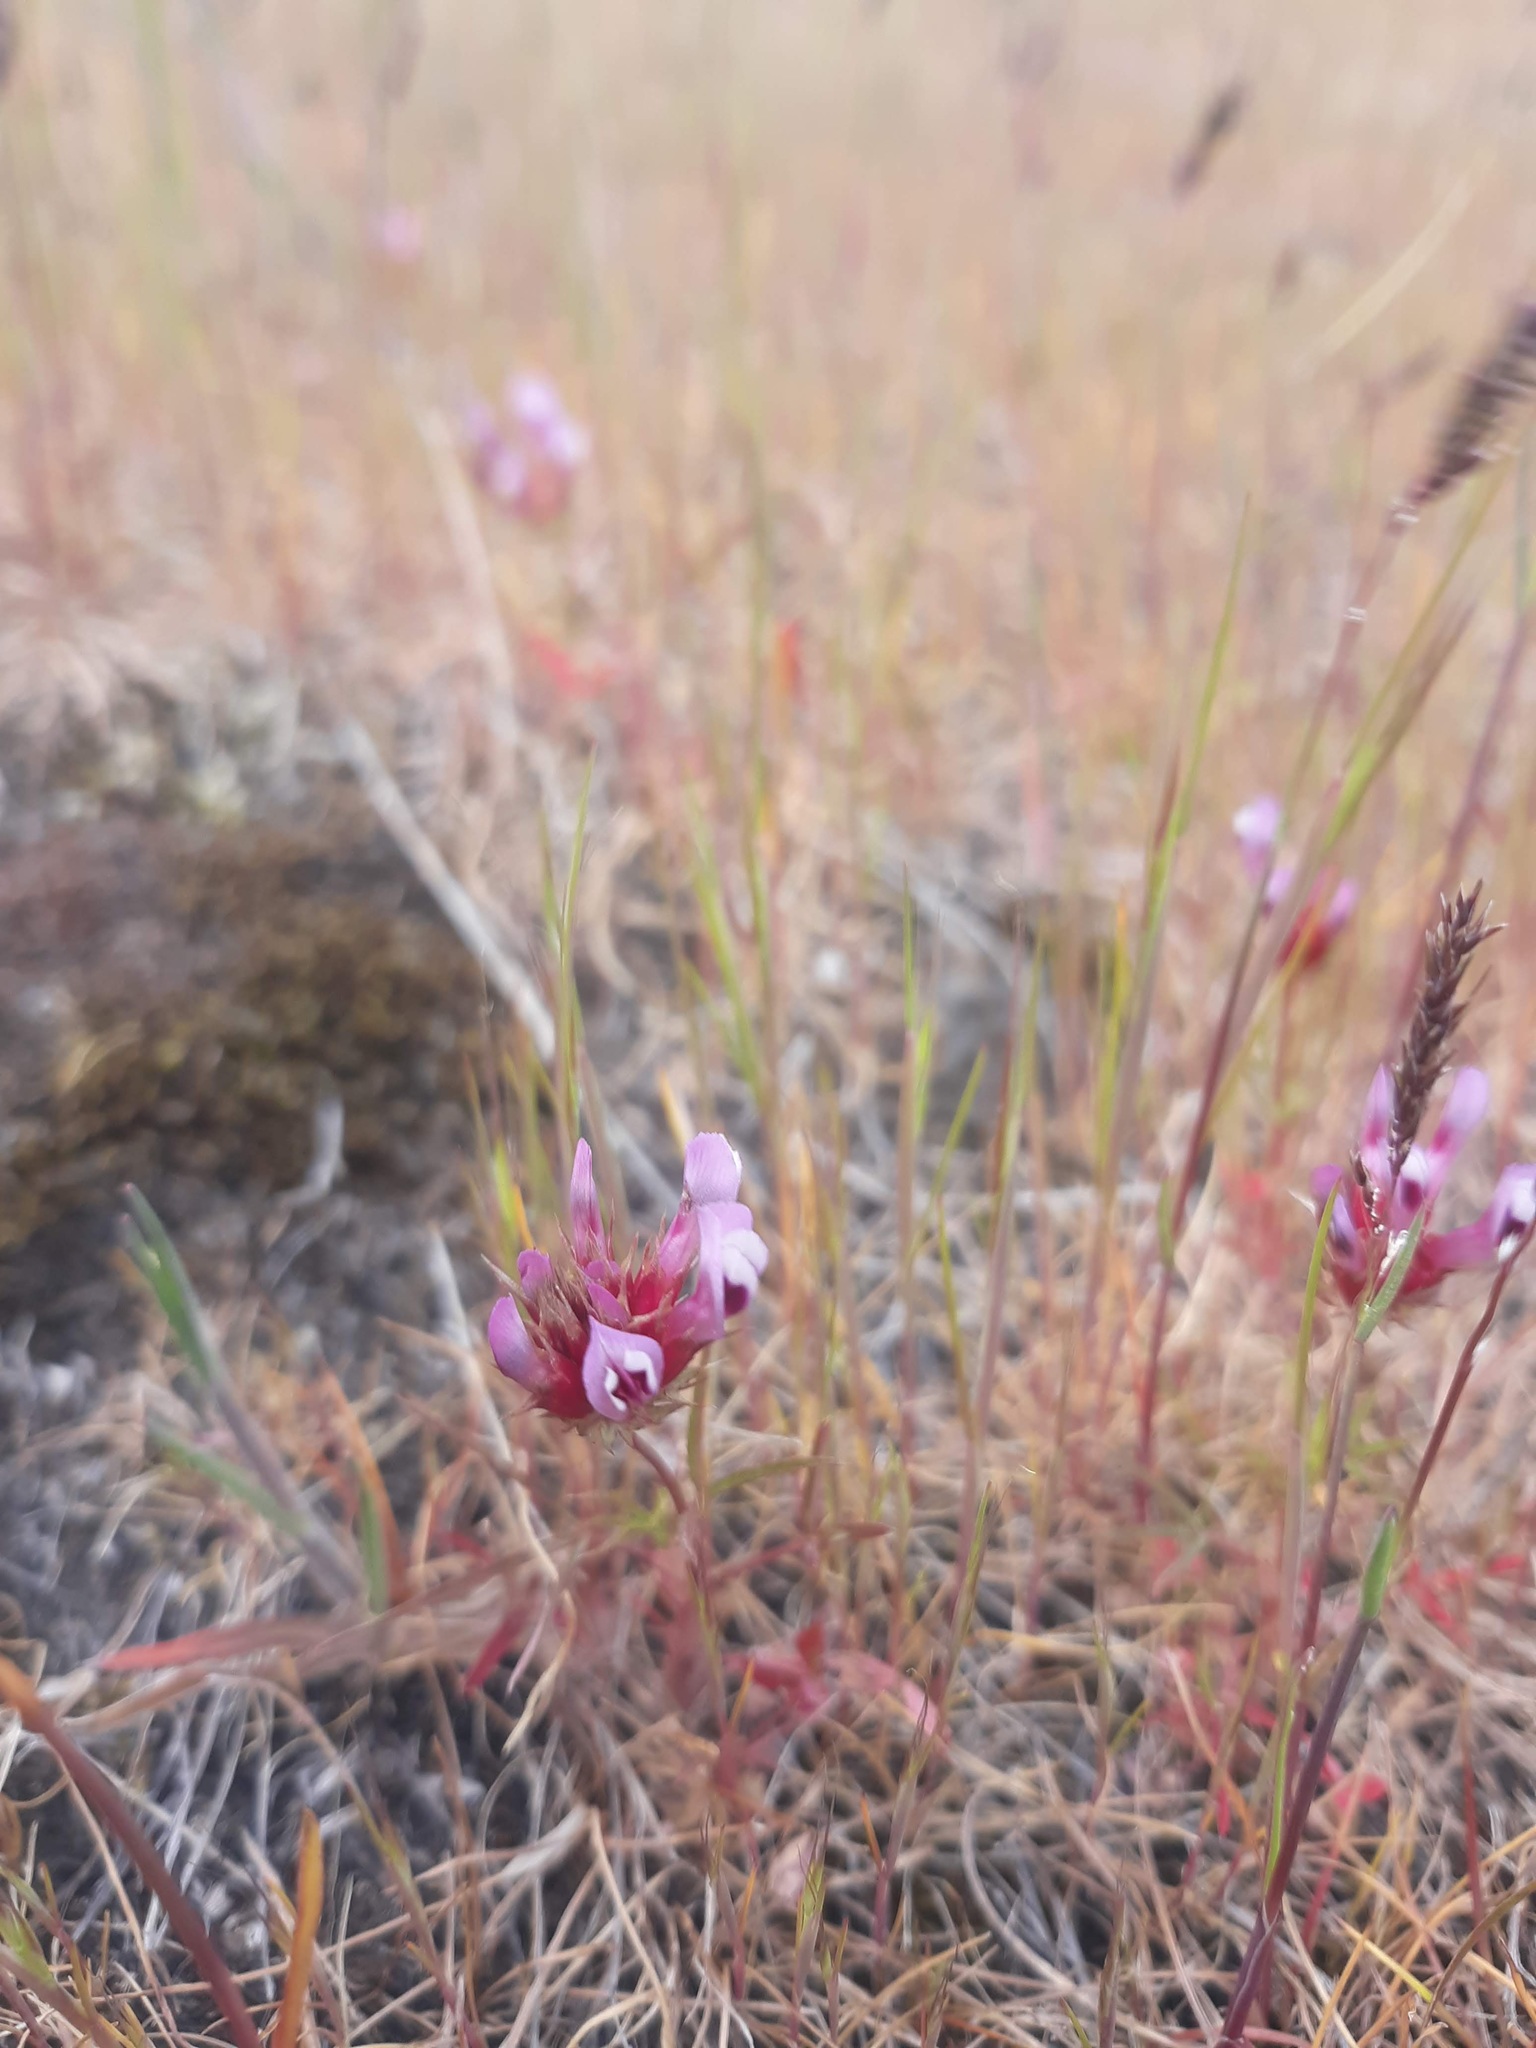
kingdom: Plantae
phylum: Tracheophyta
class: Magnoliopsida
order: Fabales
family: Fabaceae
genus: Trifolium
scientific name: Trifolium willdenovii
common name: Tomcat clover
